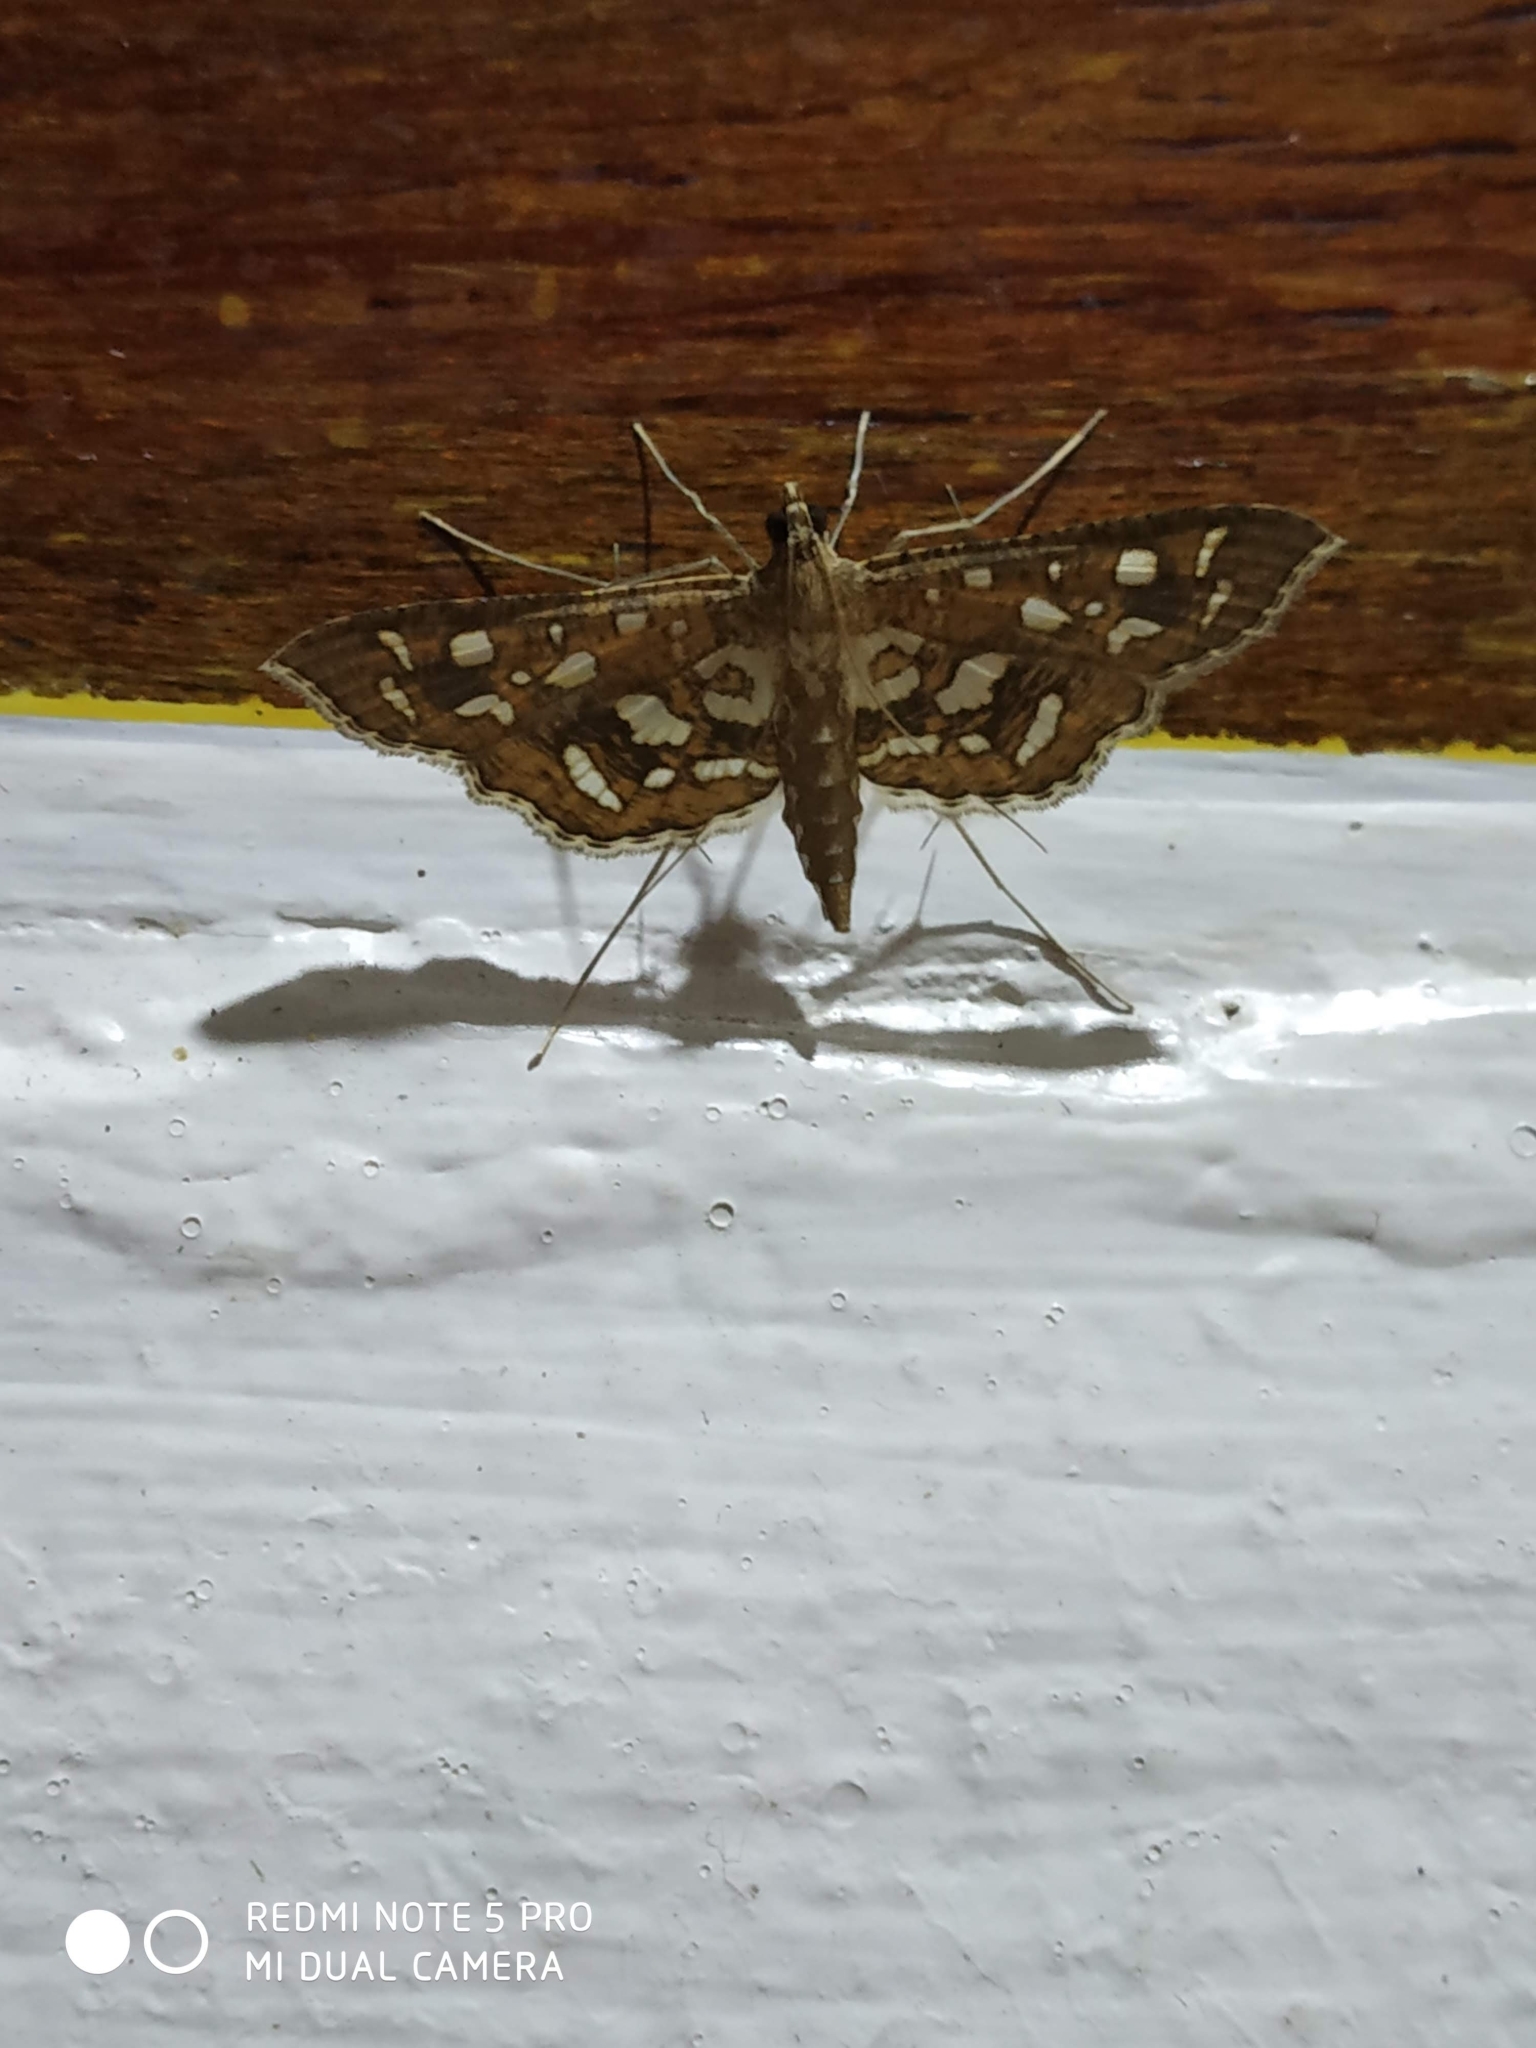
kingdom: Animalia
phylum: Arthropoda
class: Insecta
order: Lepidoptera
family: Crambidae
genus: Nausinoe
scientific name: Nausinoe geometralis
